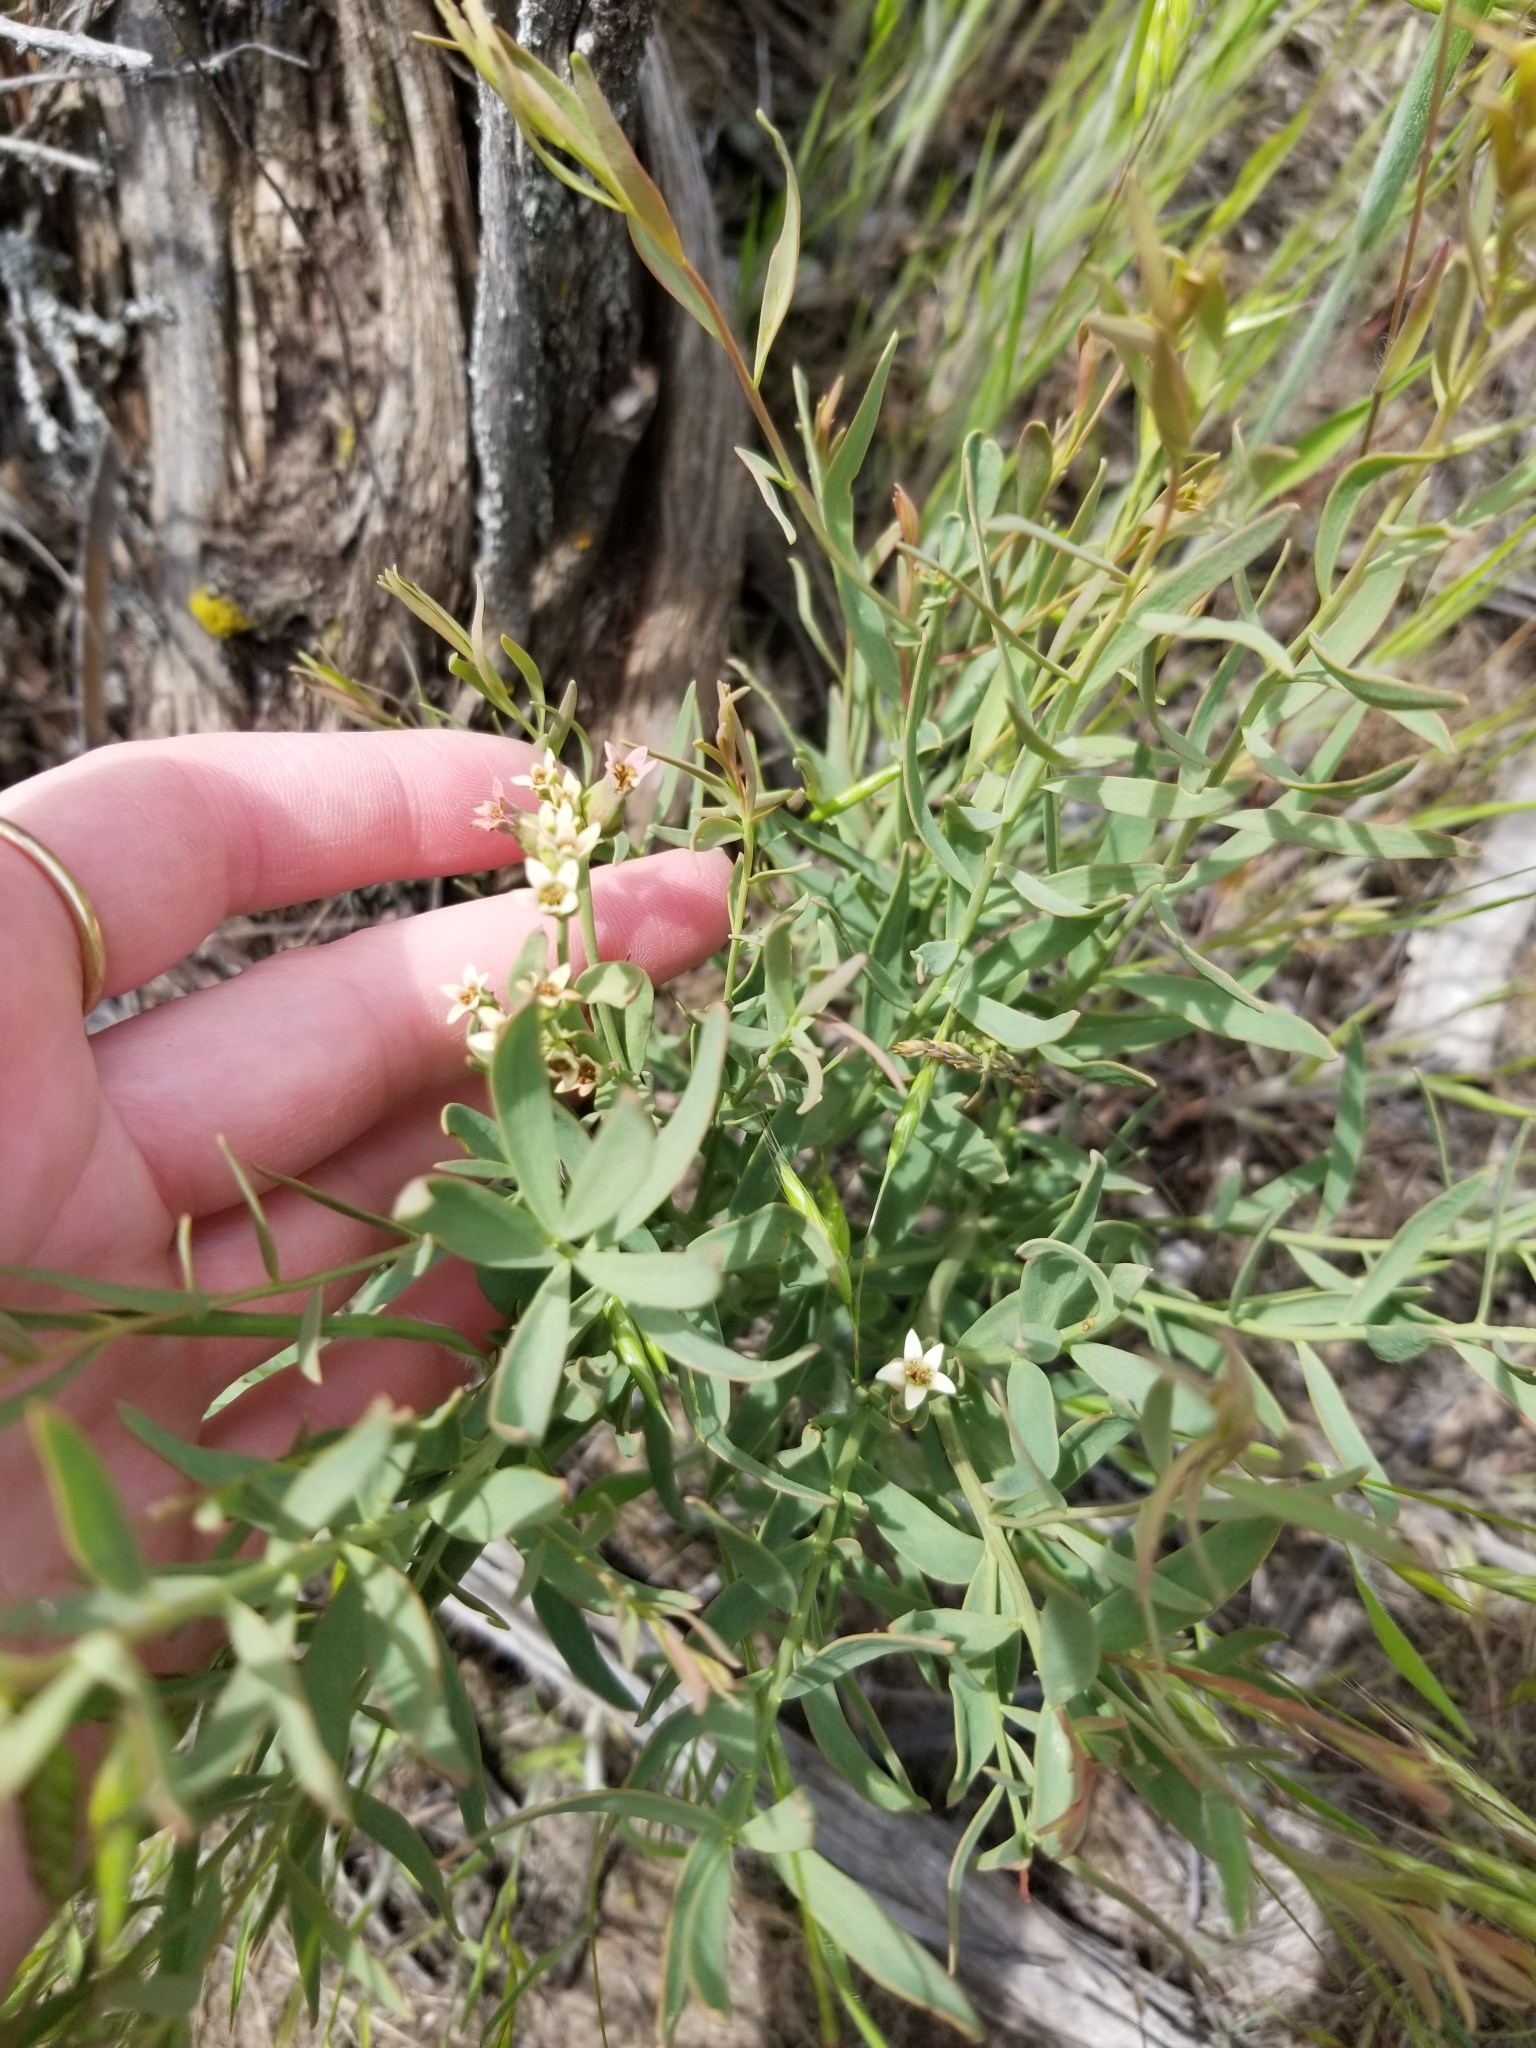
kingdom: Plantae
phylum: Tracheophyta
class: Magnoliopsida
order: Santalales
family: Comandraceae
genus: Comandra
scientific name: Comandra umbellata
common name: Bastard toadflax
